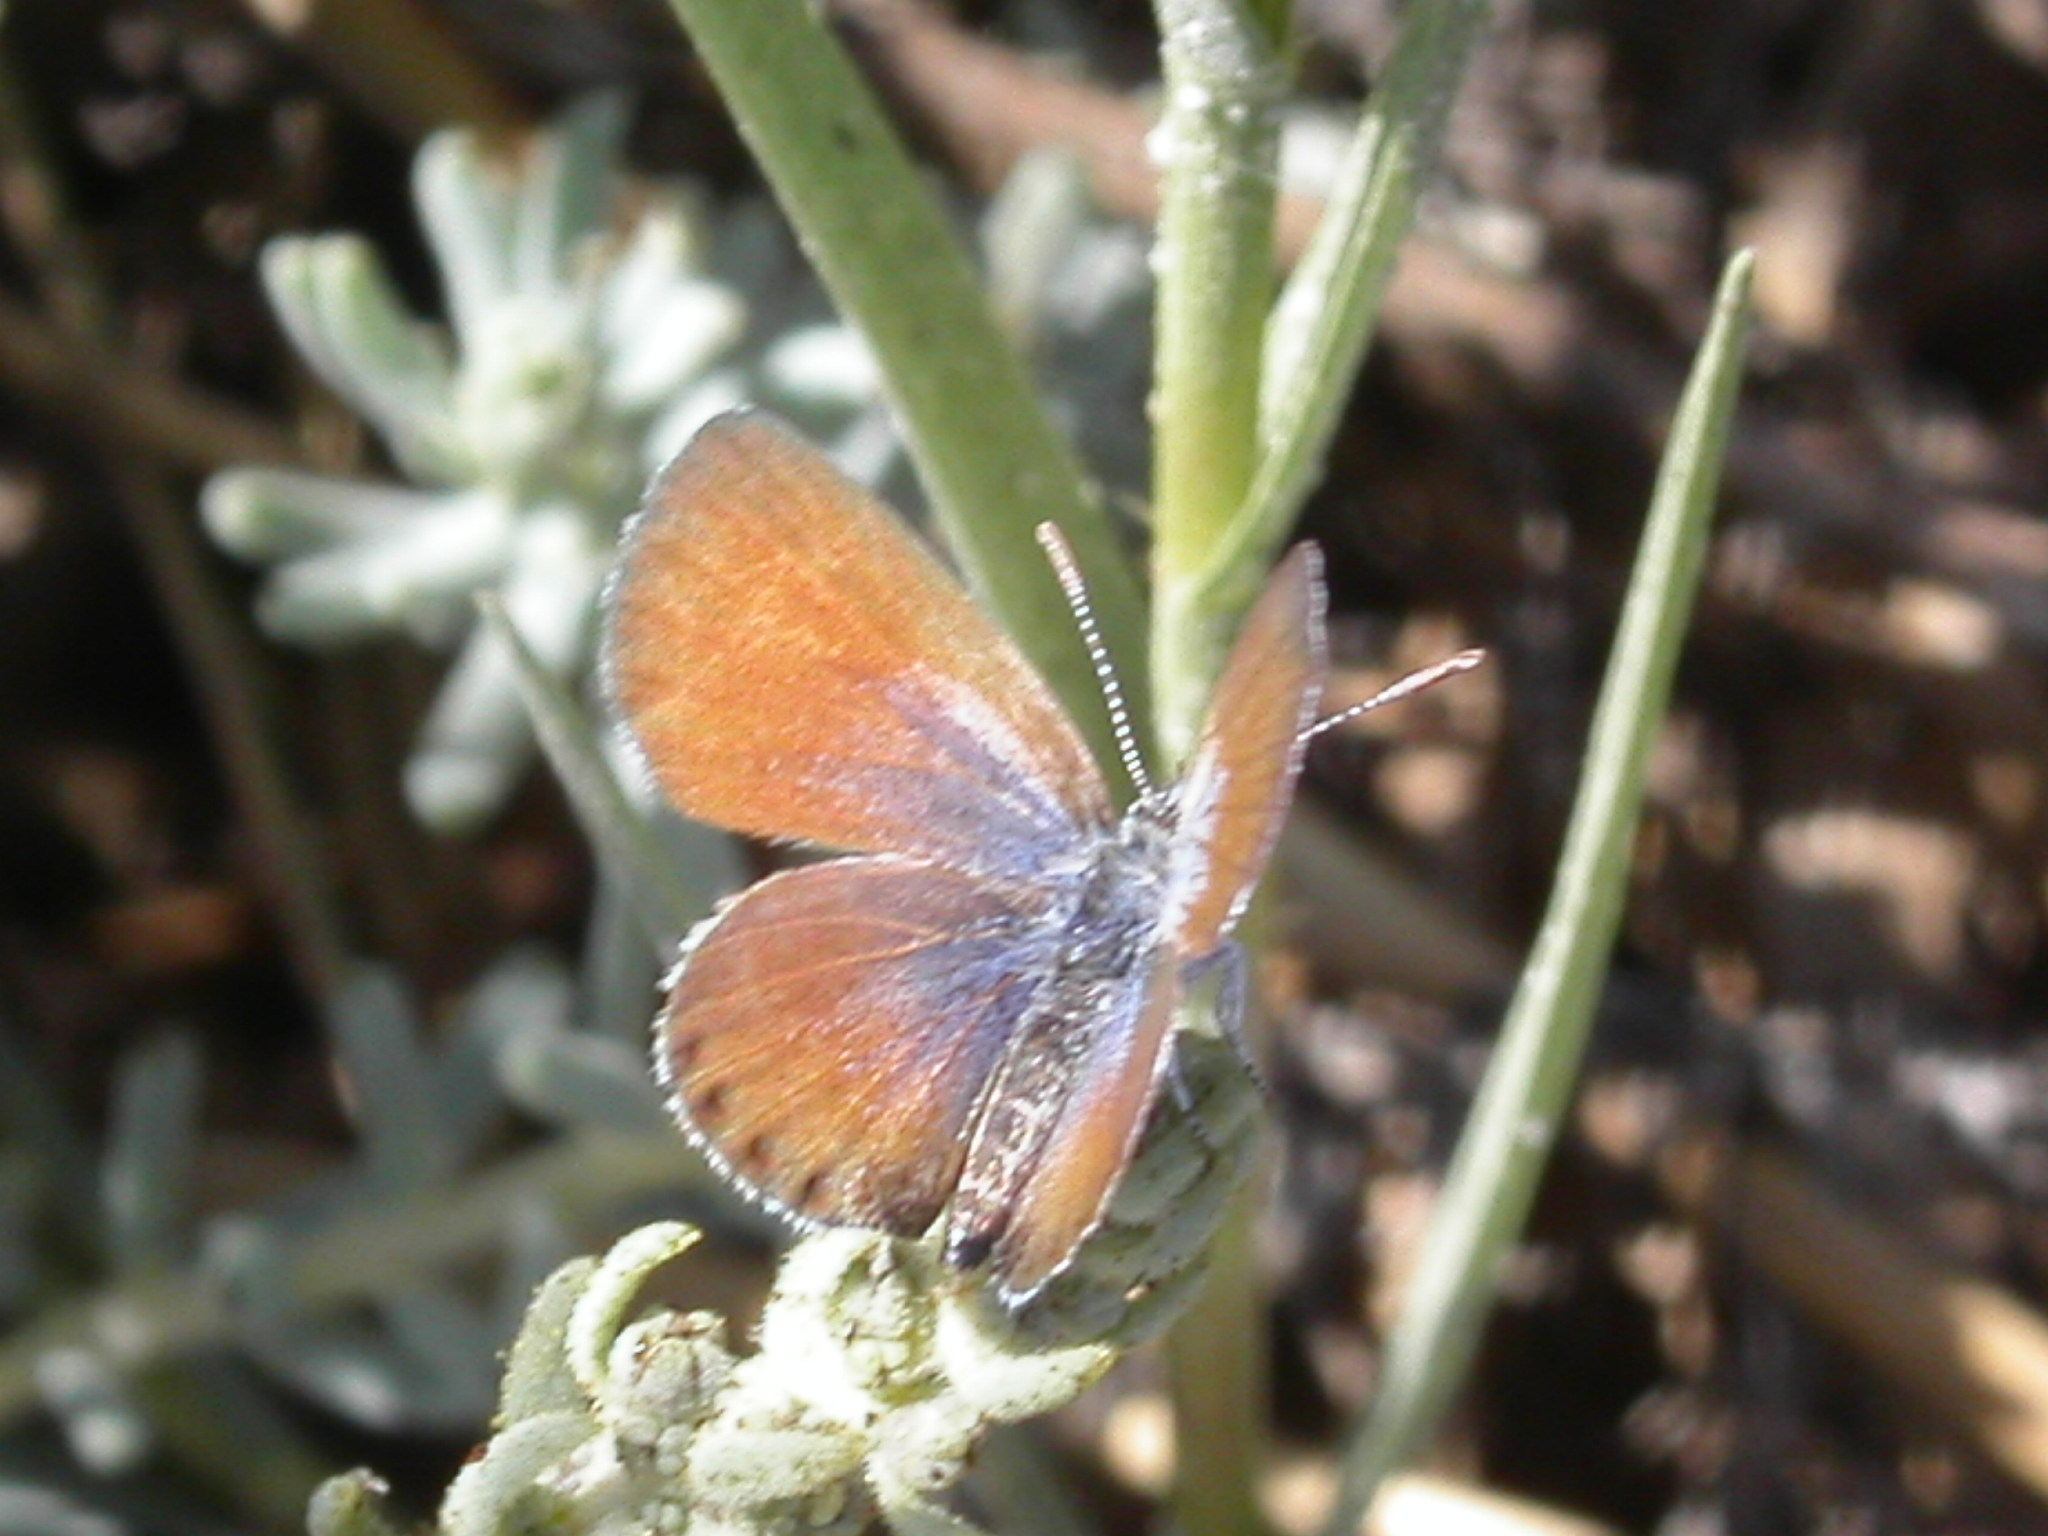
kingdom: Animalia
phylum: Arthropoda
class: Insecta
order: Lepidoptera
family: Lycaenidae
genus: Brephidium
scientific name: Brephidium exilis
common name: Pygmy blue
